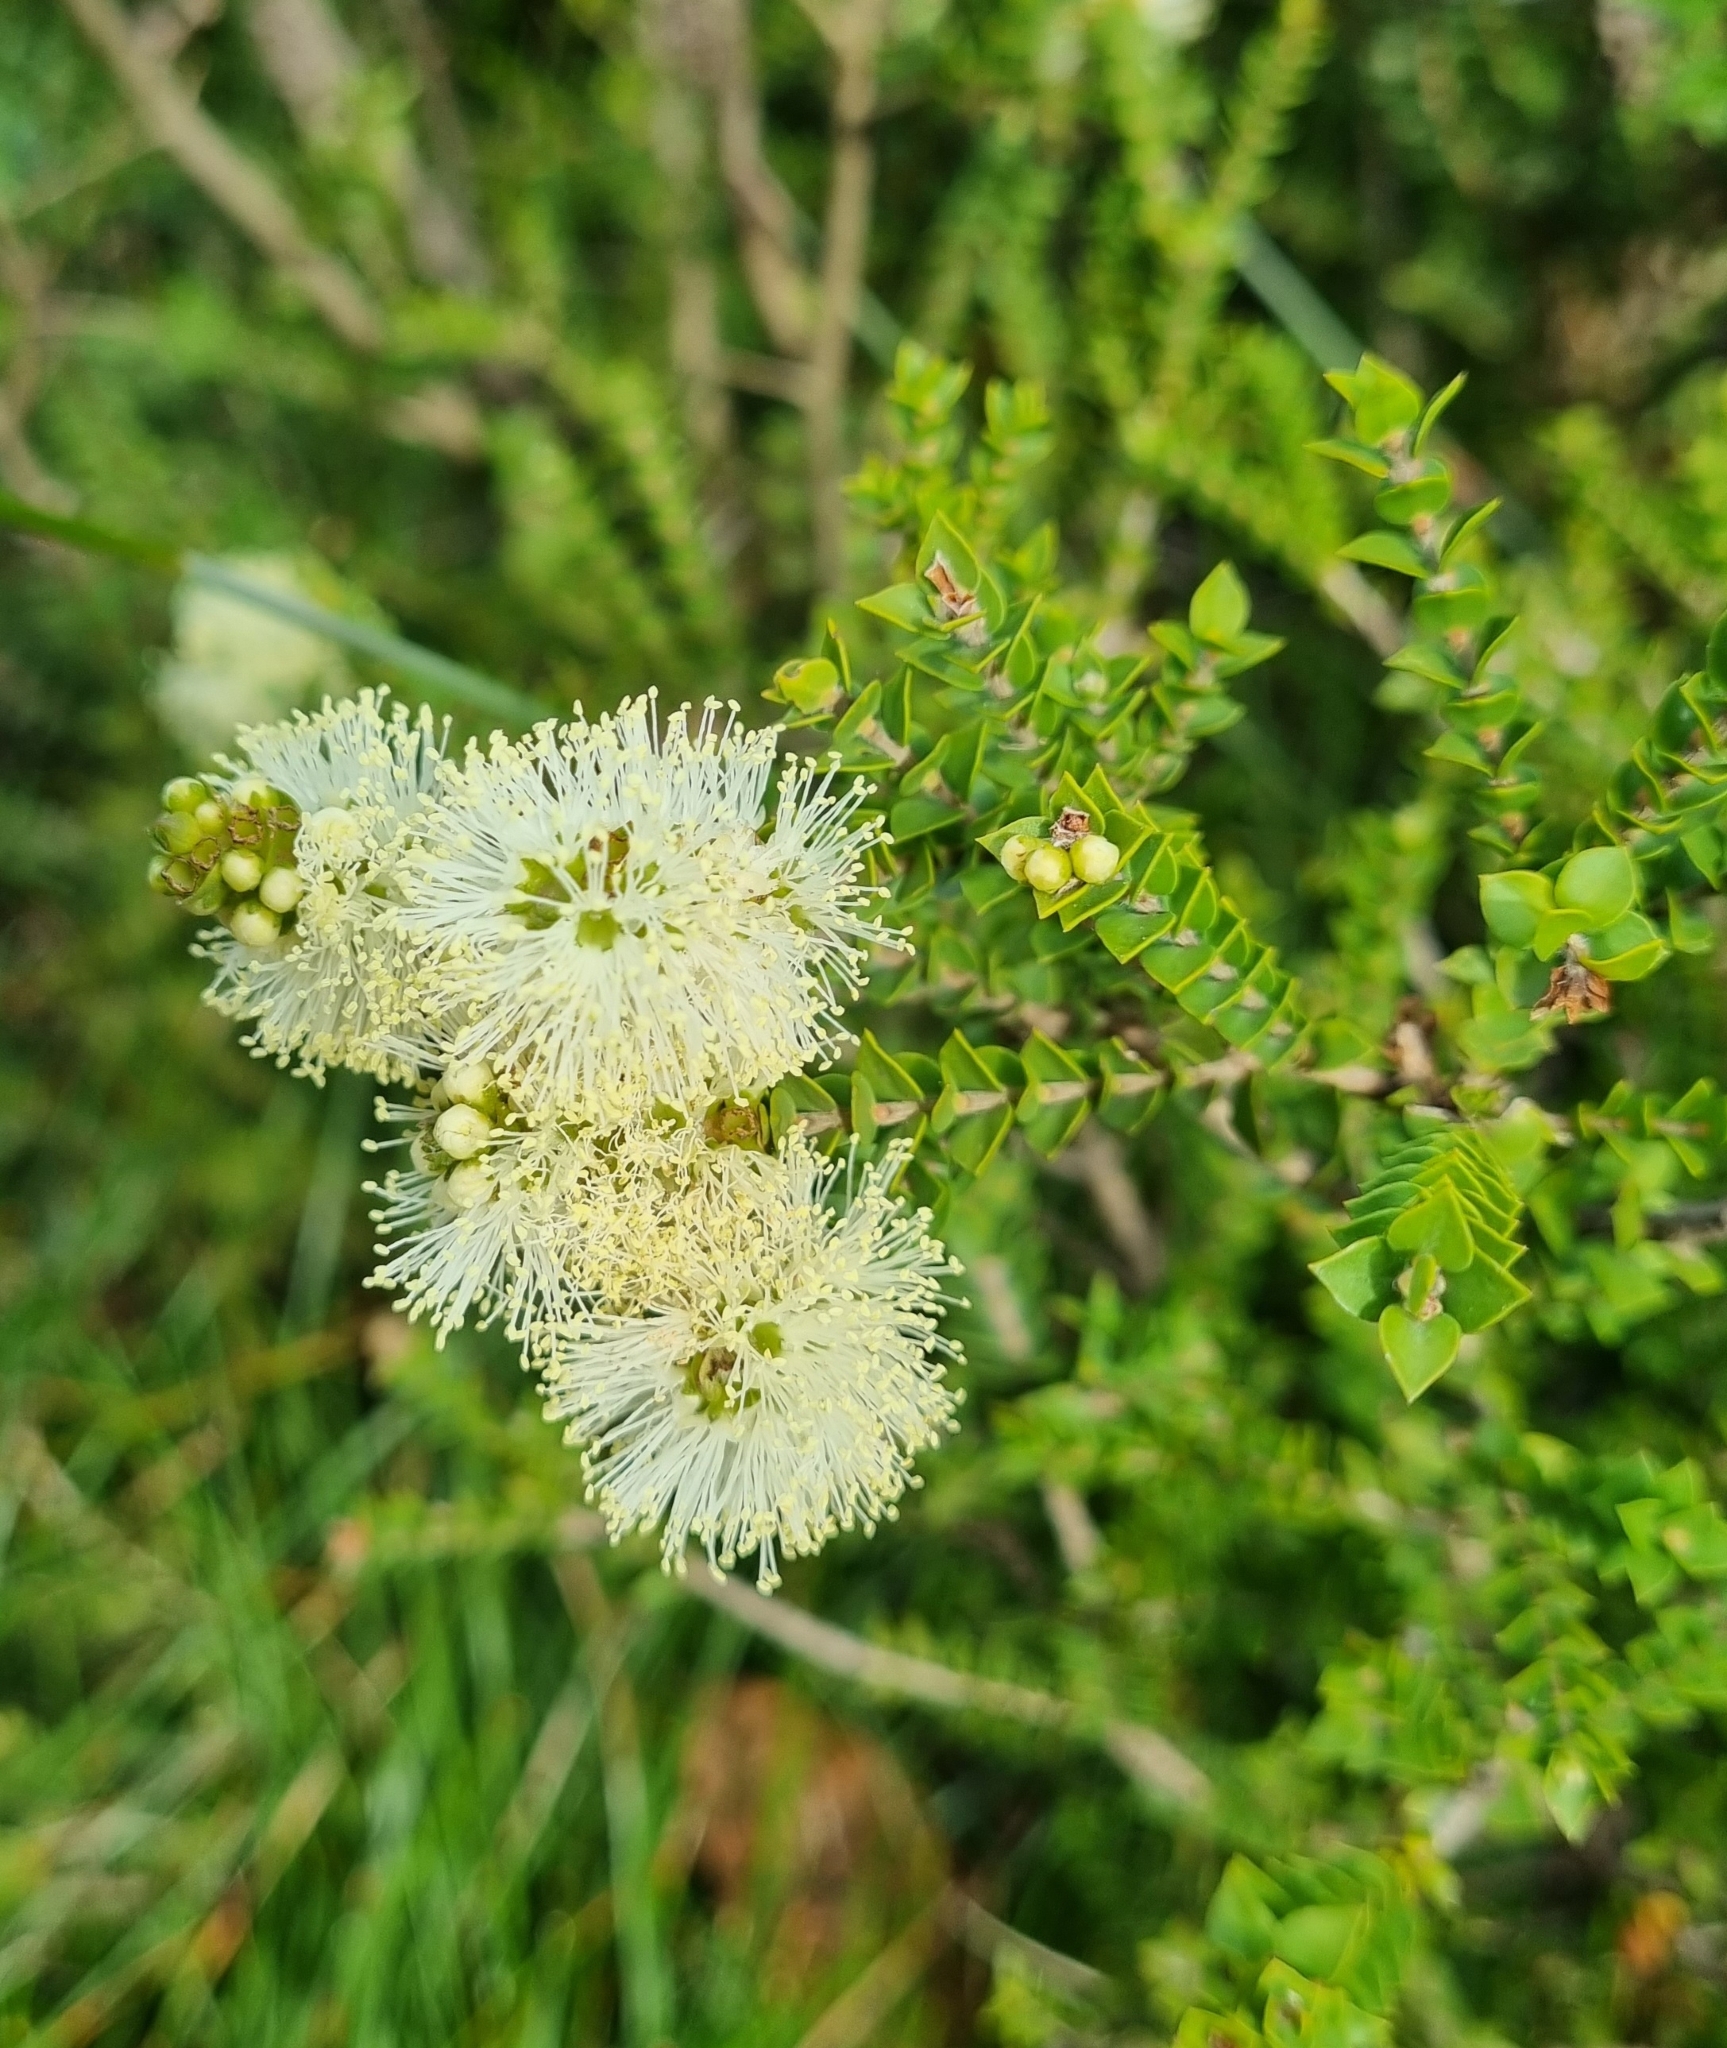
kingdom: Plantae
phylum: Tracheophyta
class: Magnoliopsida
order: Myrtales
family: Myrtaceae
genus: Melaleuca
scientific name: Melaleuca squarrosa
